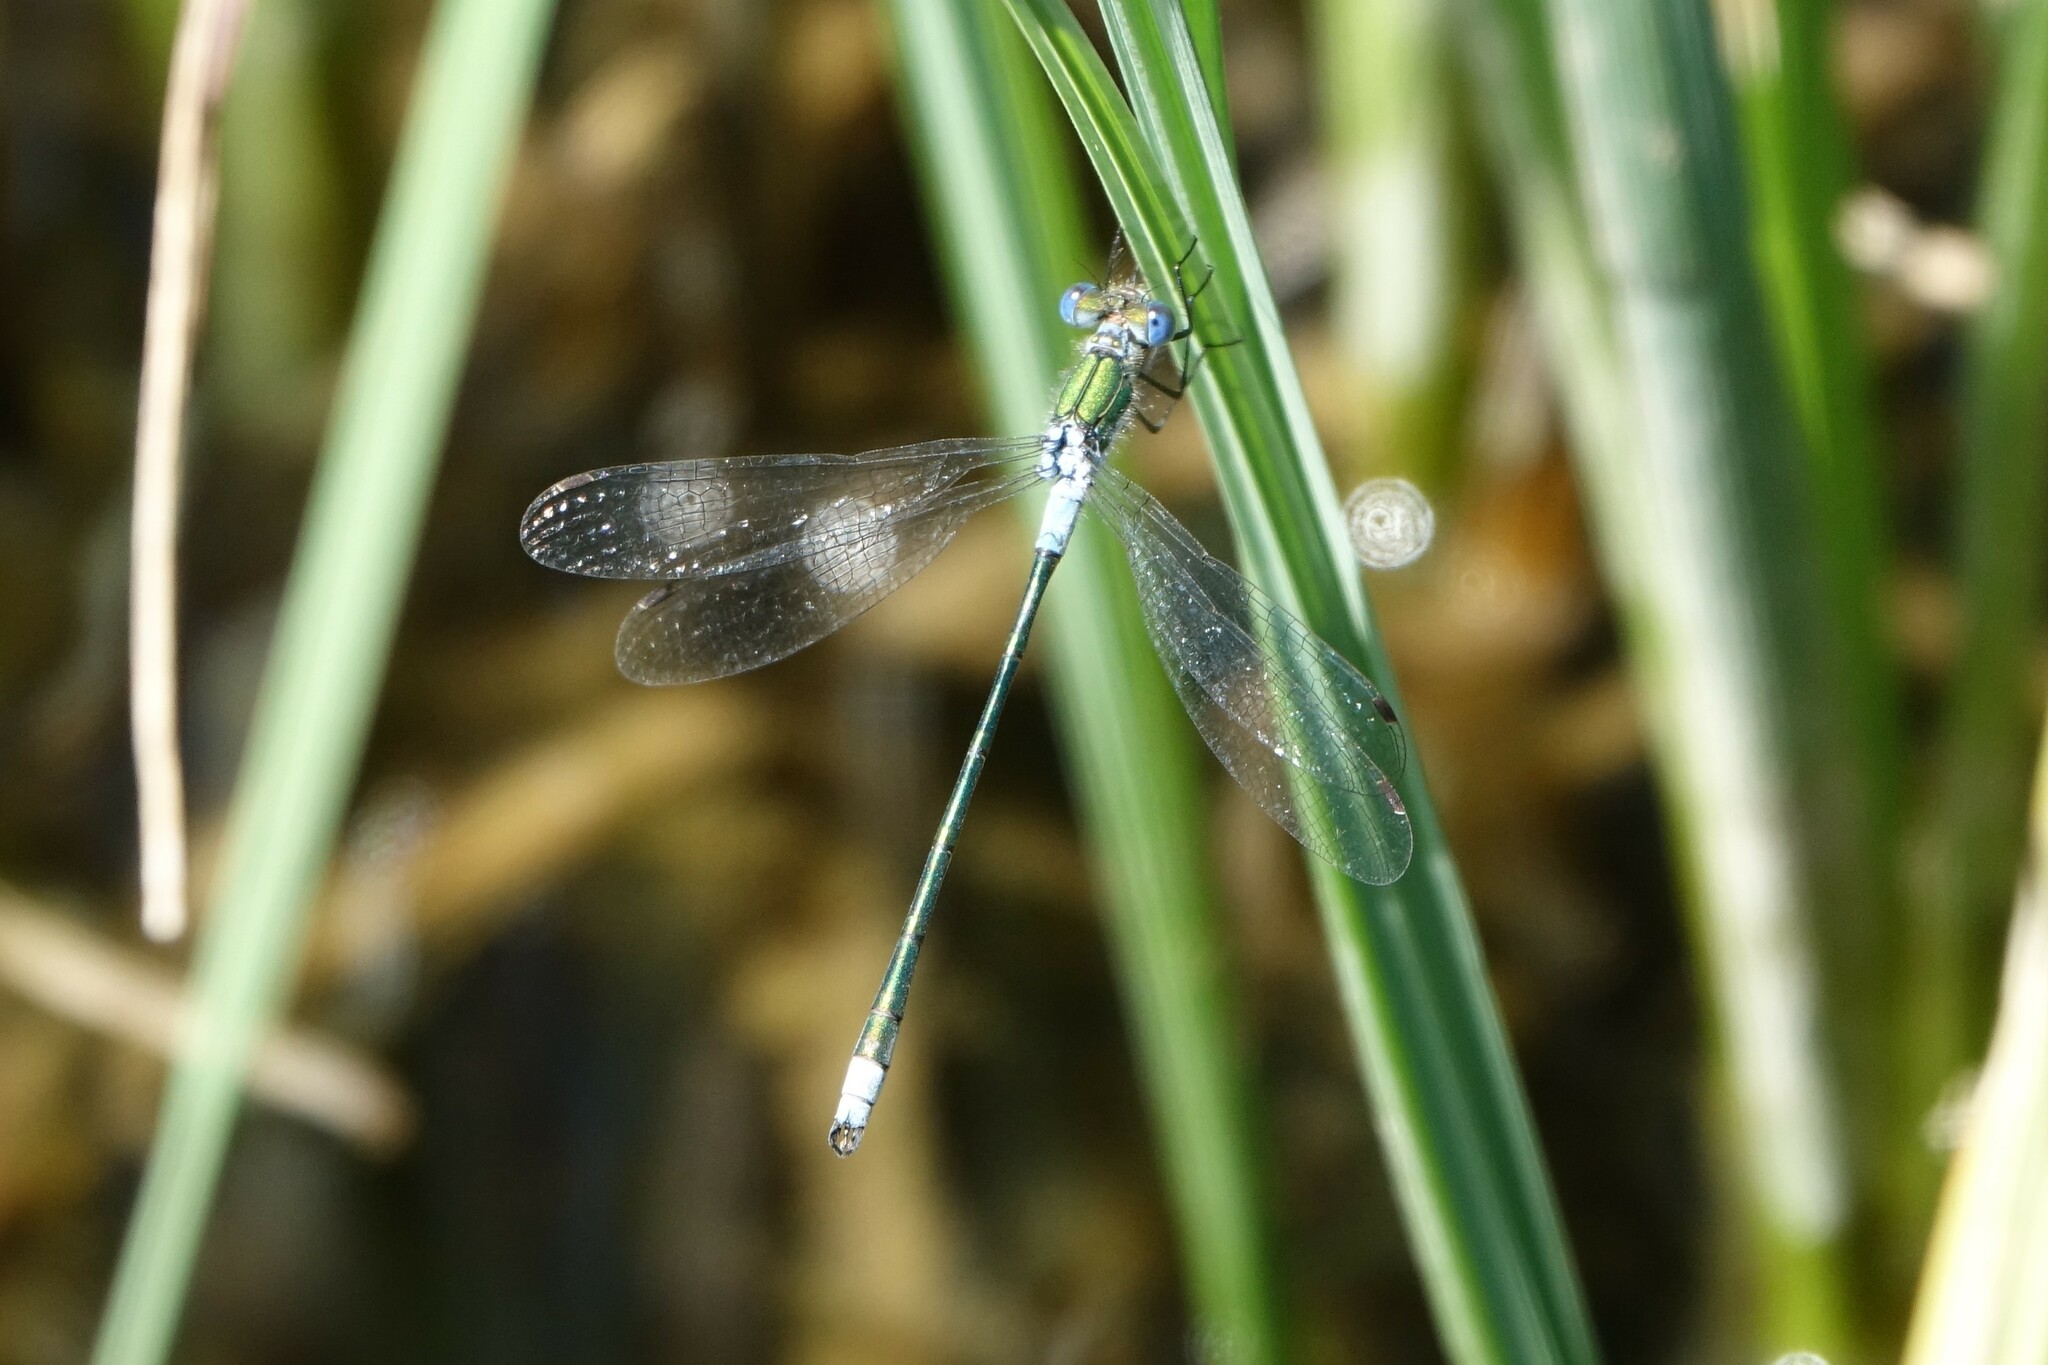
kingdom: Animalia
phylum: Arthropoda
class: Insecta
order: Odonata
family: Lestidae
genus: Lestes
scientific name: Lestes sponsa
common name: Common spreadwing
